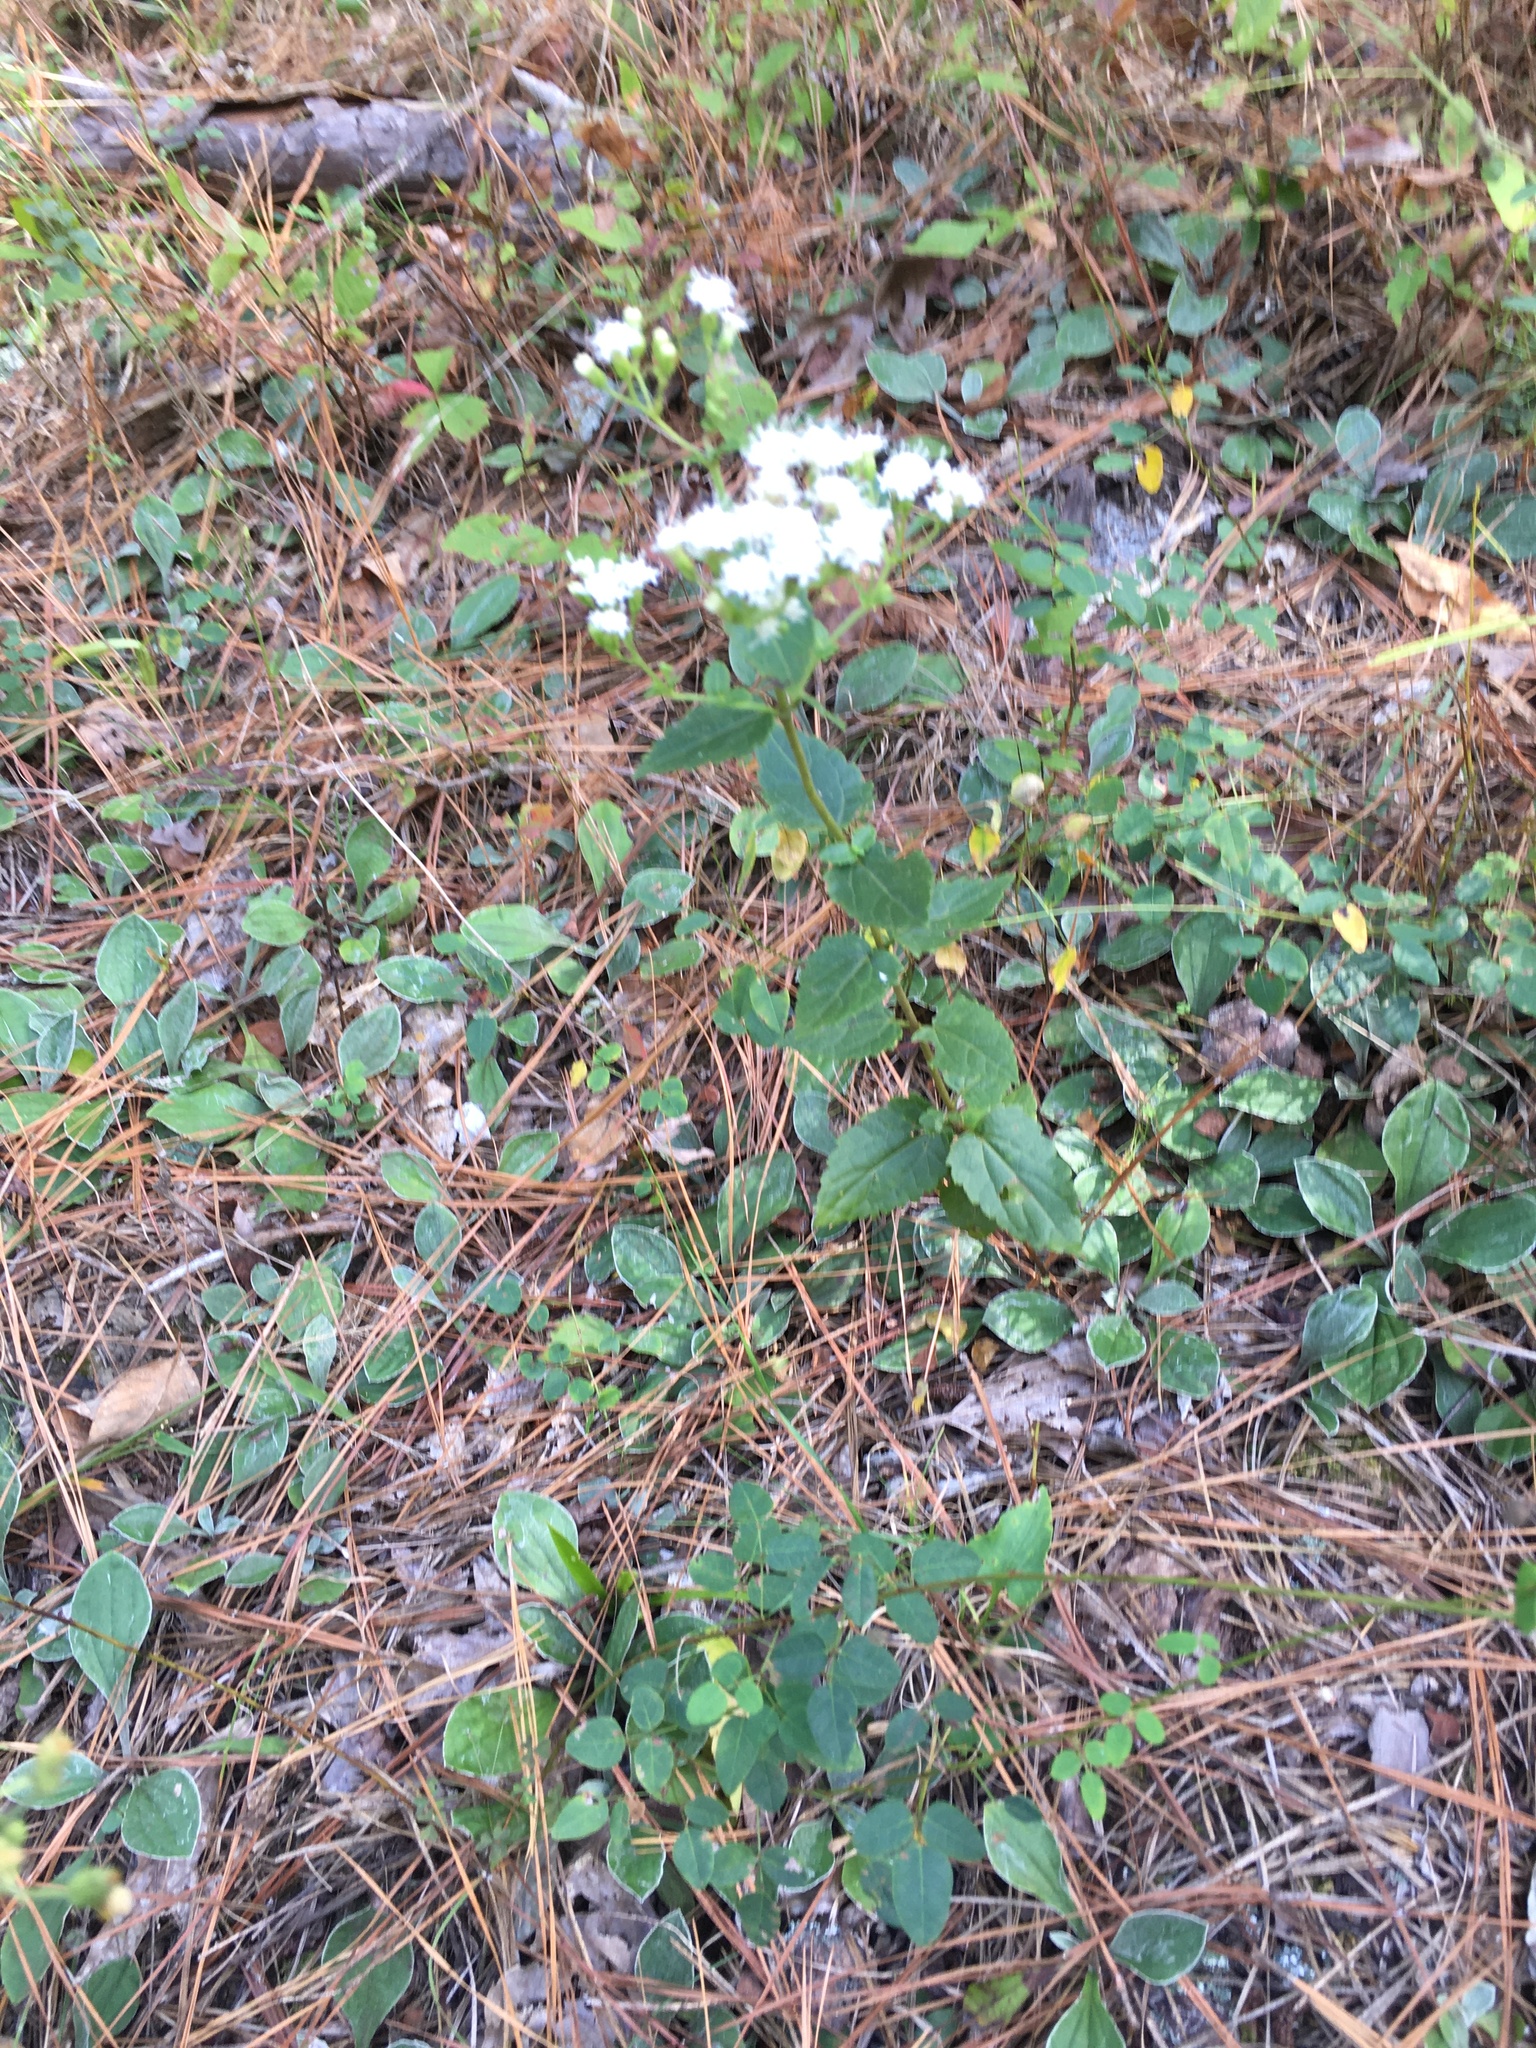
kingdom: Plantae
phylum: Tracheophyta
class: Magnoliopsida
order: Asterales
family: Asteraceae
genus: Ageratina
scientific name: Ageratina aromatica
